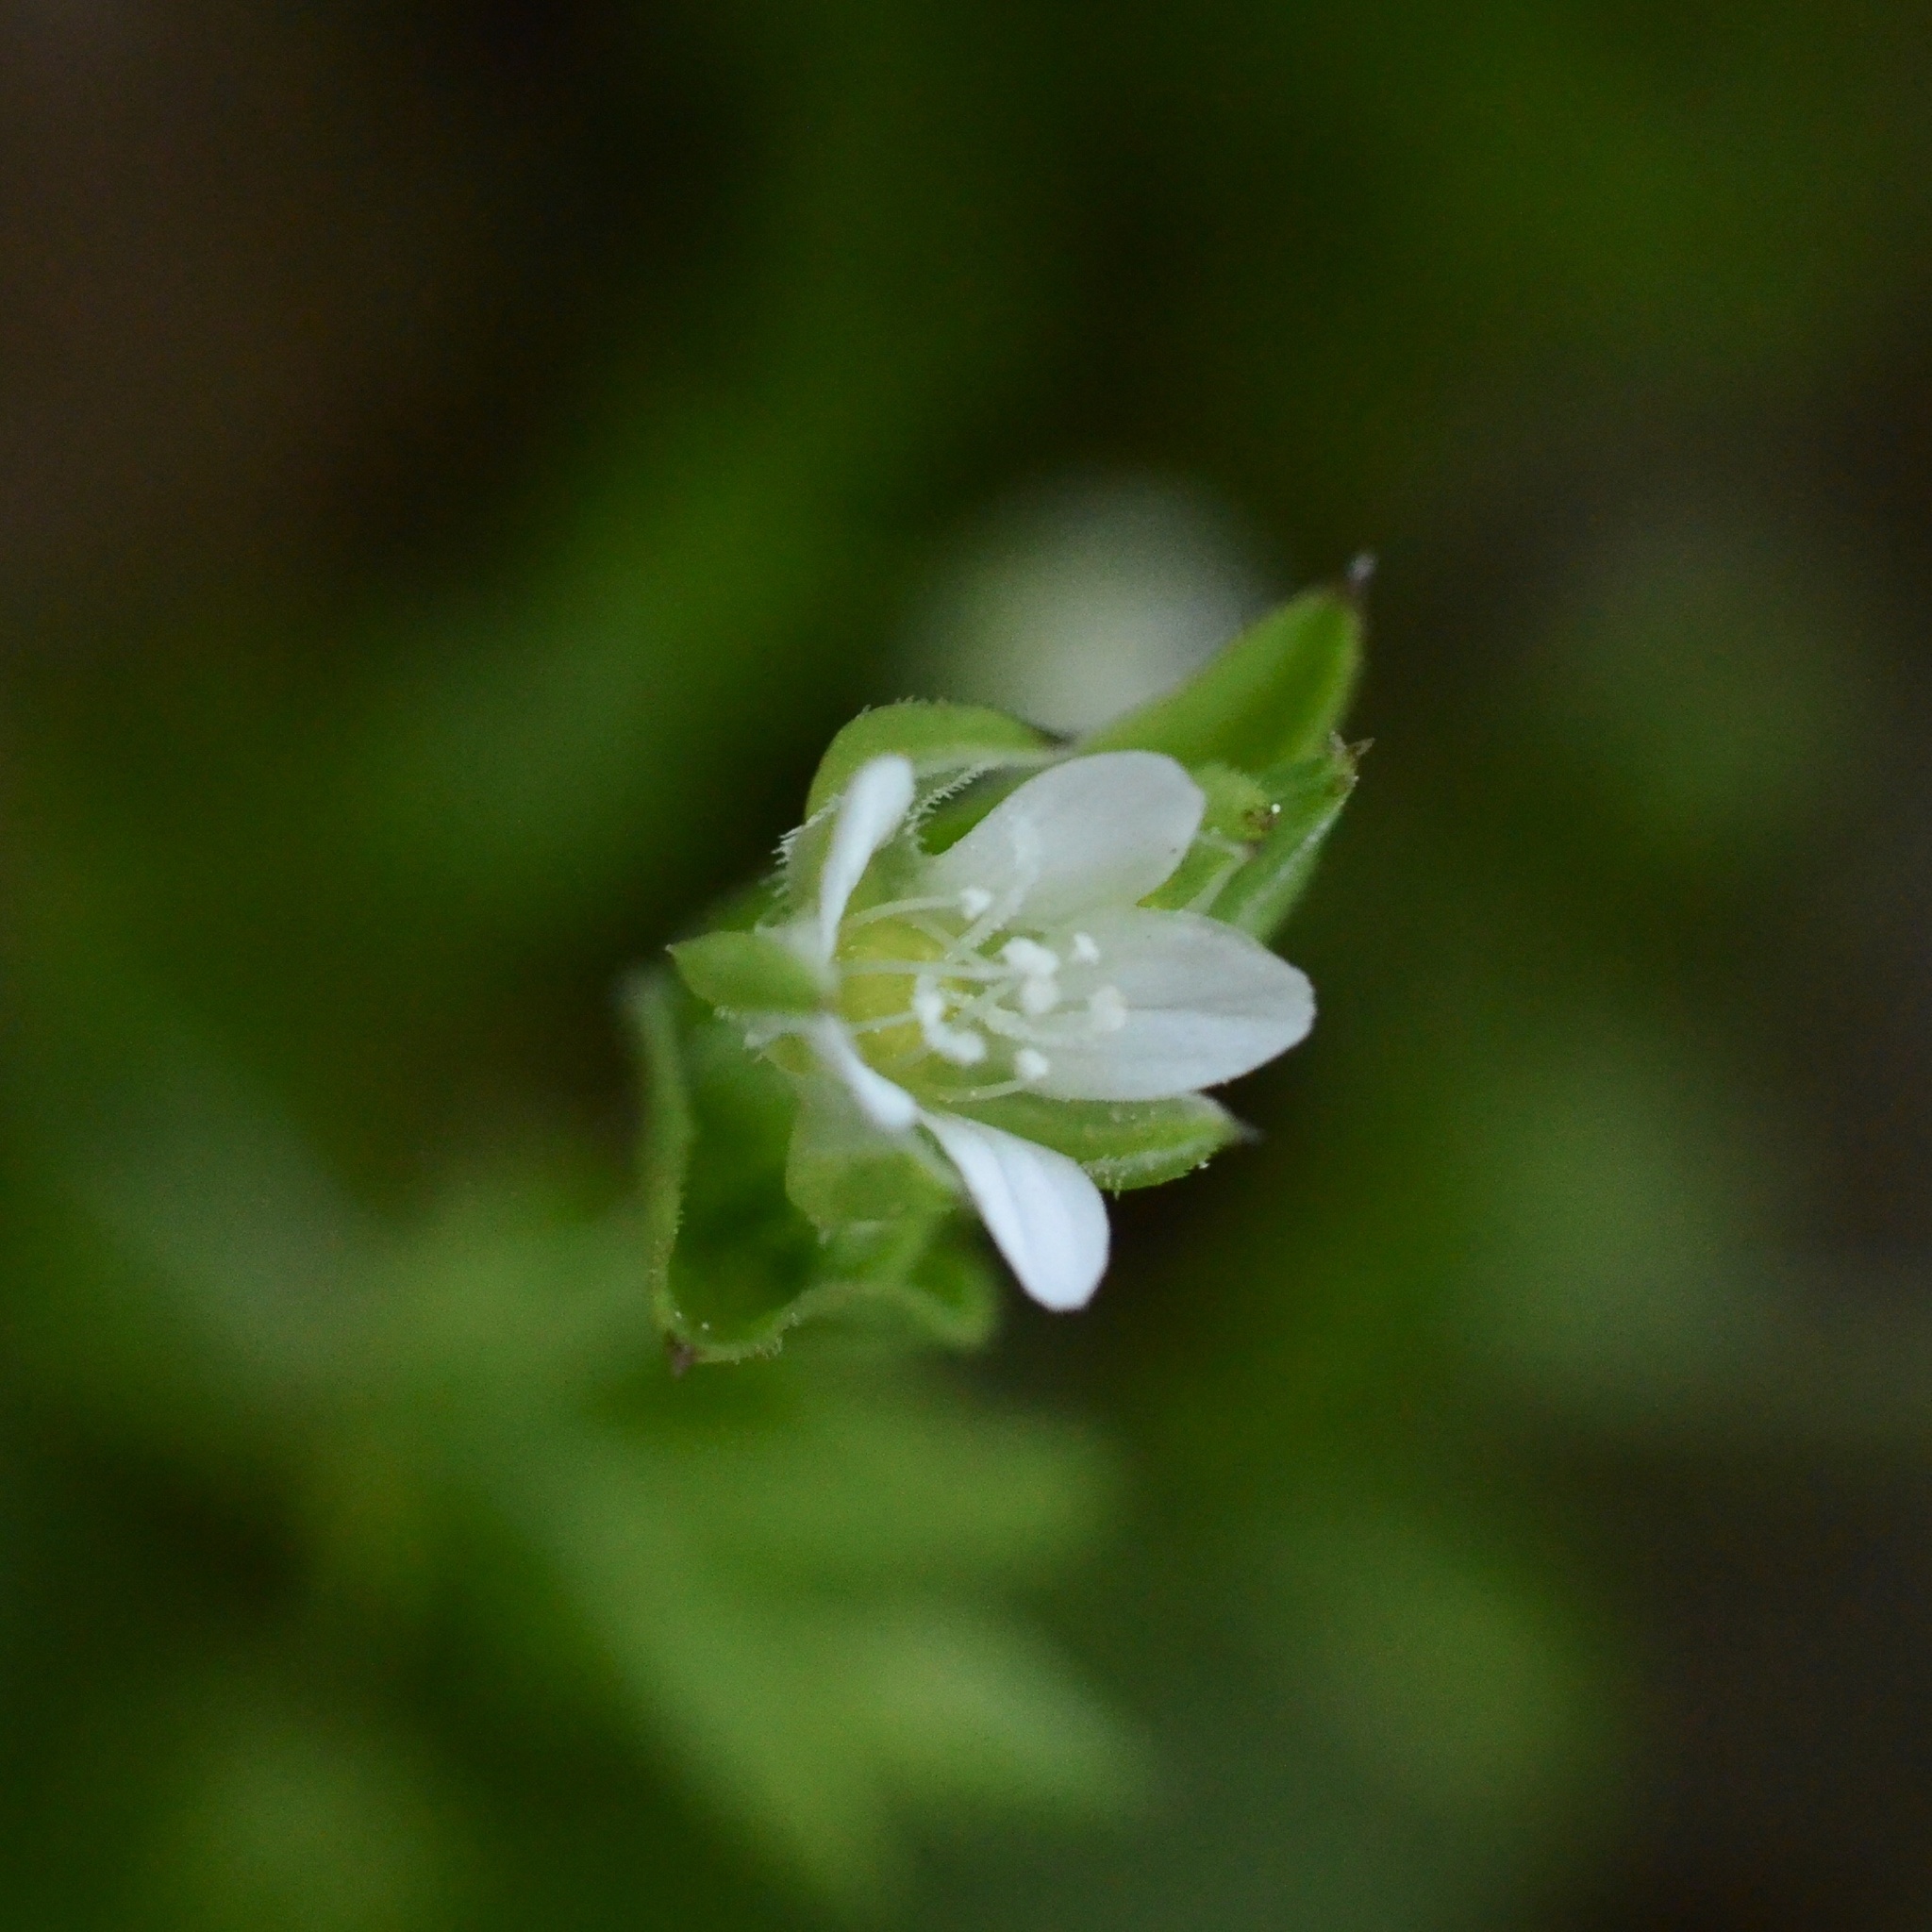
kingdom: Plantae
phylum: Tracheophyta
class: Magnoliopsida
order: Caryophyllales
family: Caryophyllaceae
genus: Arenaria
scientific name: Arenaria serpyllifolia
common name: Thyme-leaved sandwort
